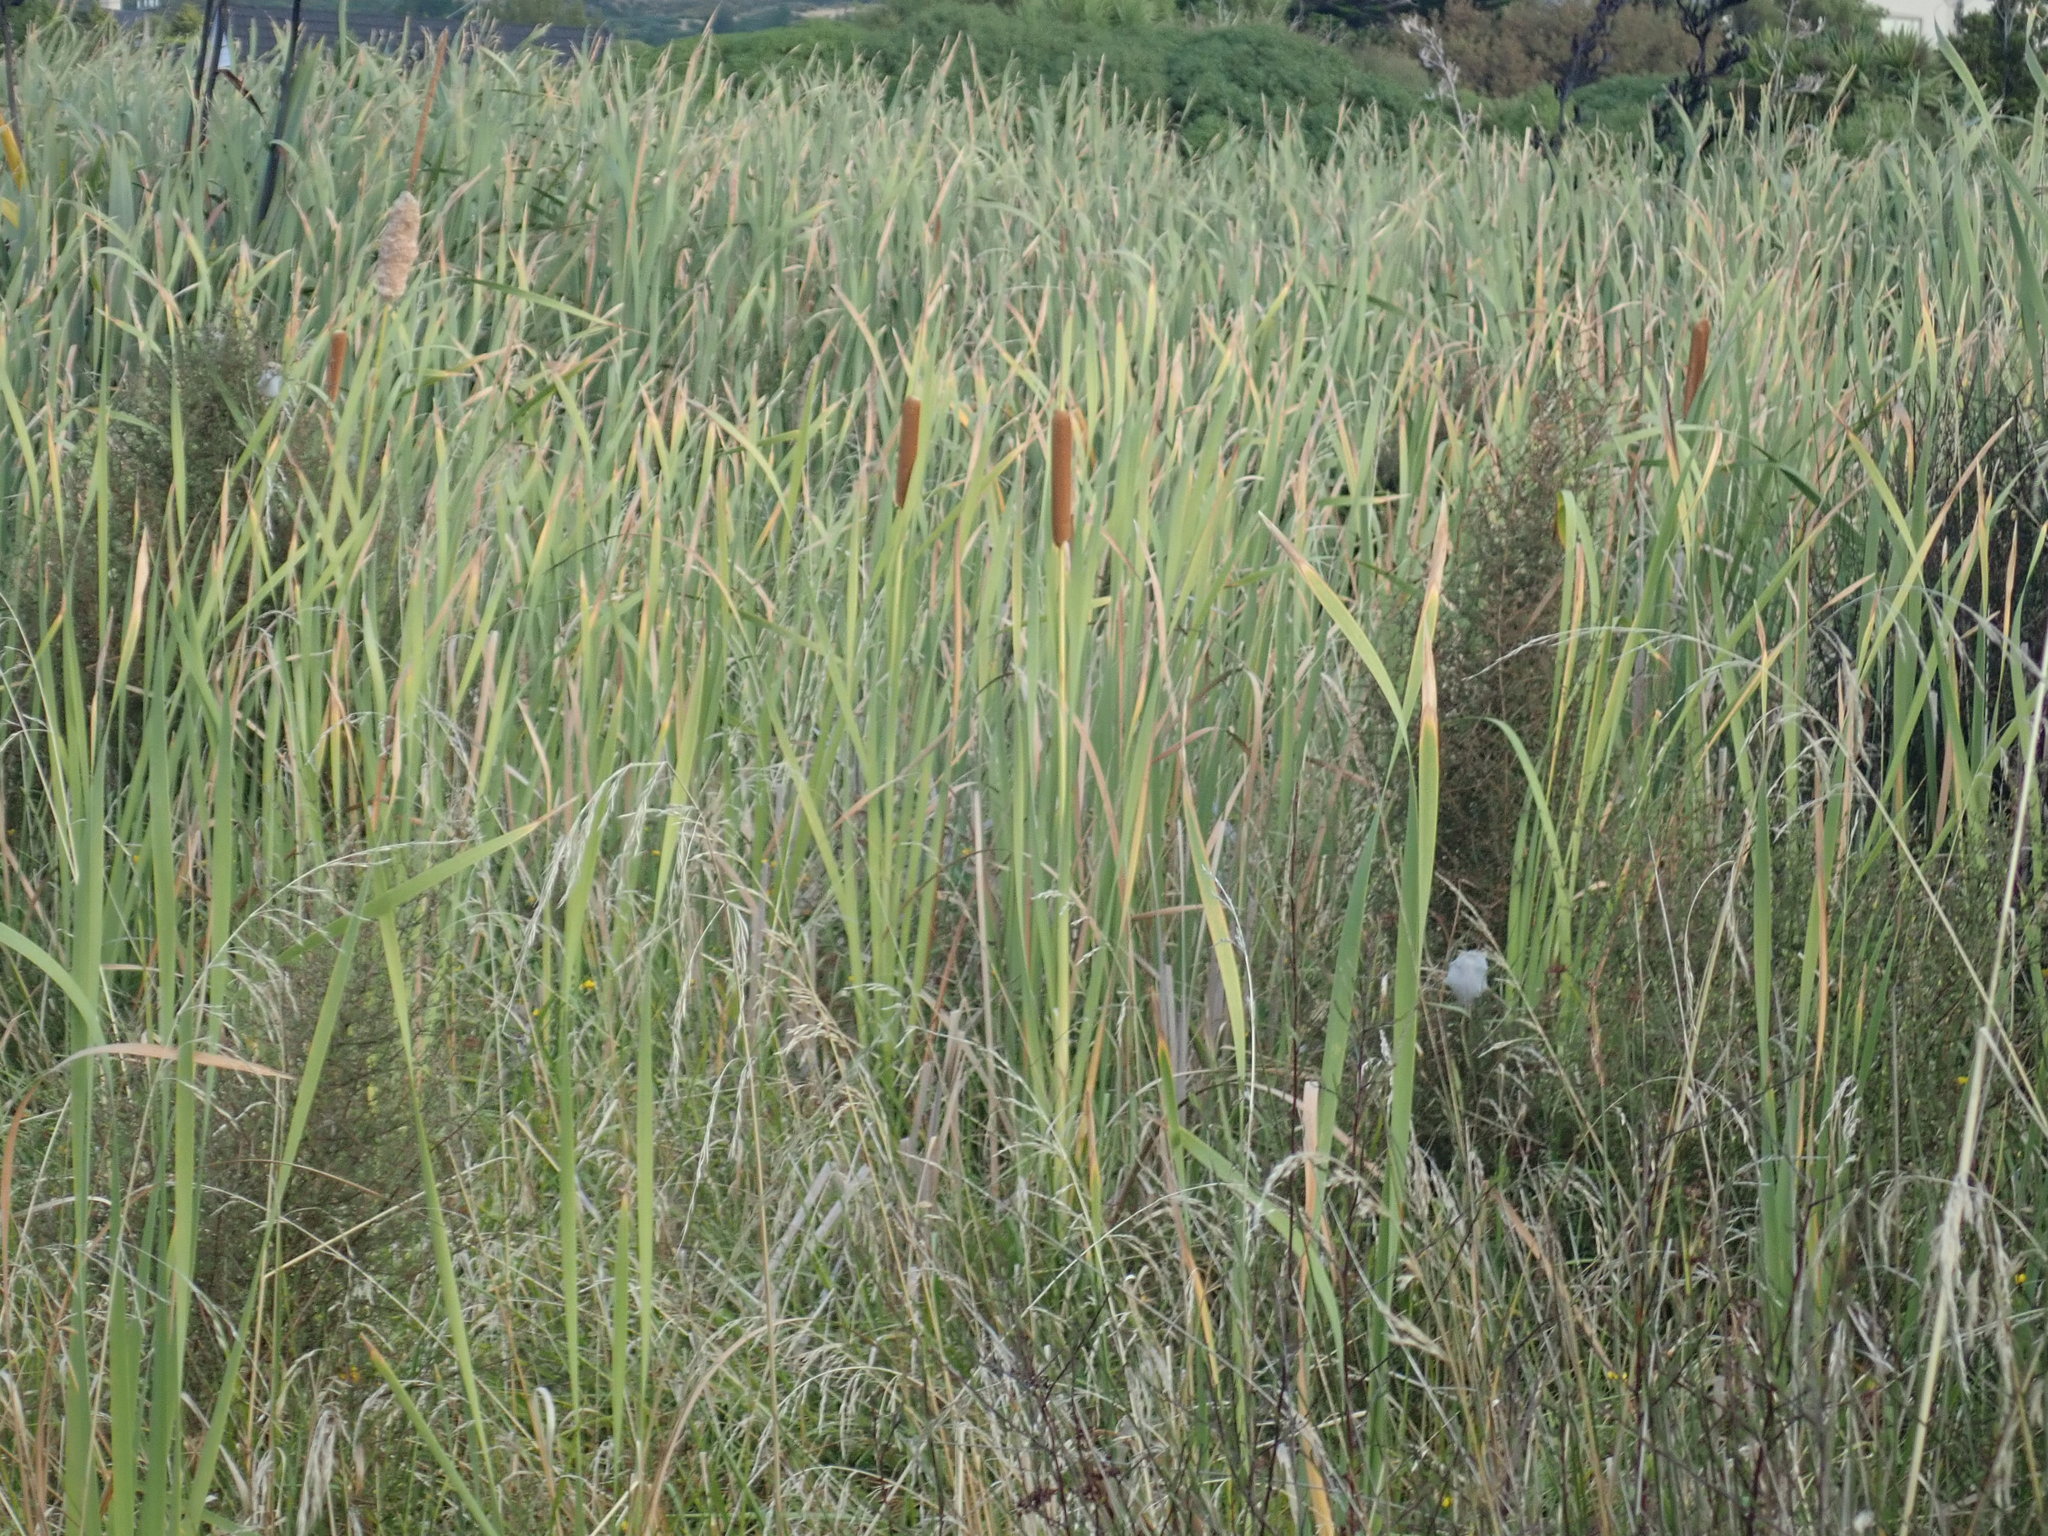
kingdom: Plantae
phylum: Tracheophyta
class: Liliopsida
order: Poales
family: Typhaceae
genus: Typha
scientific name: Typha orientalis
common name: Bullrush
